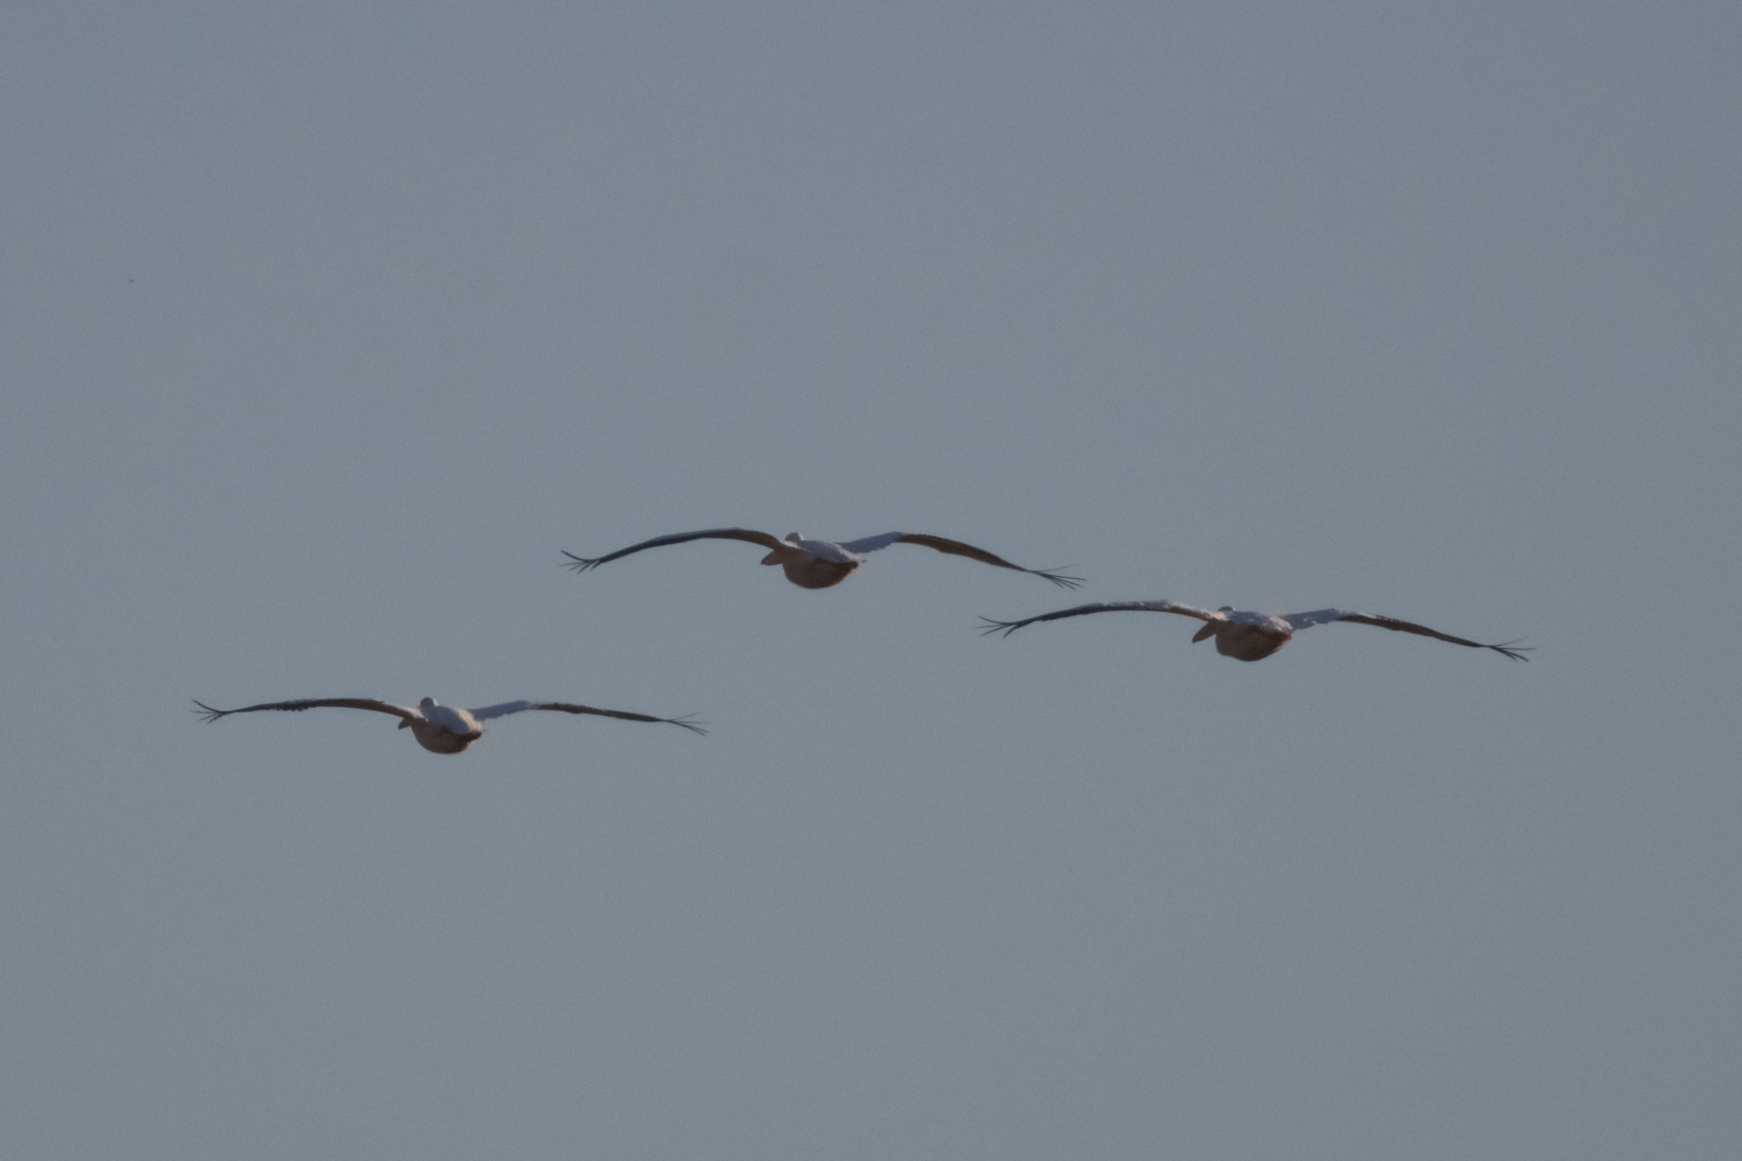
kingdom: Animalia
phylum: Chordata
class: Aves
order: Pelecaniformes
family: Pelecanidae
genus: Pelecanus
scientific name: Pelecanus erythrorhynchos
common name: American white pelican
